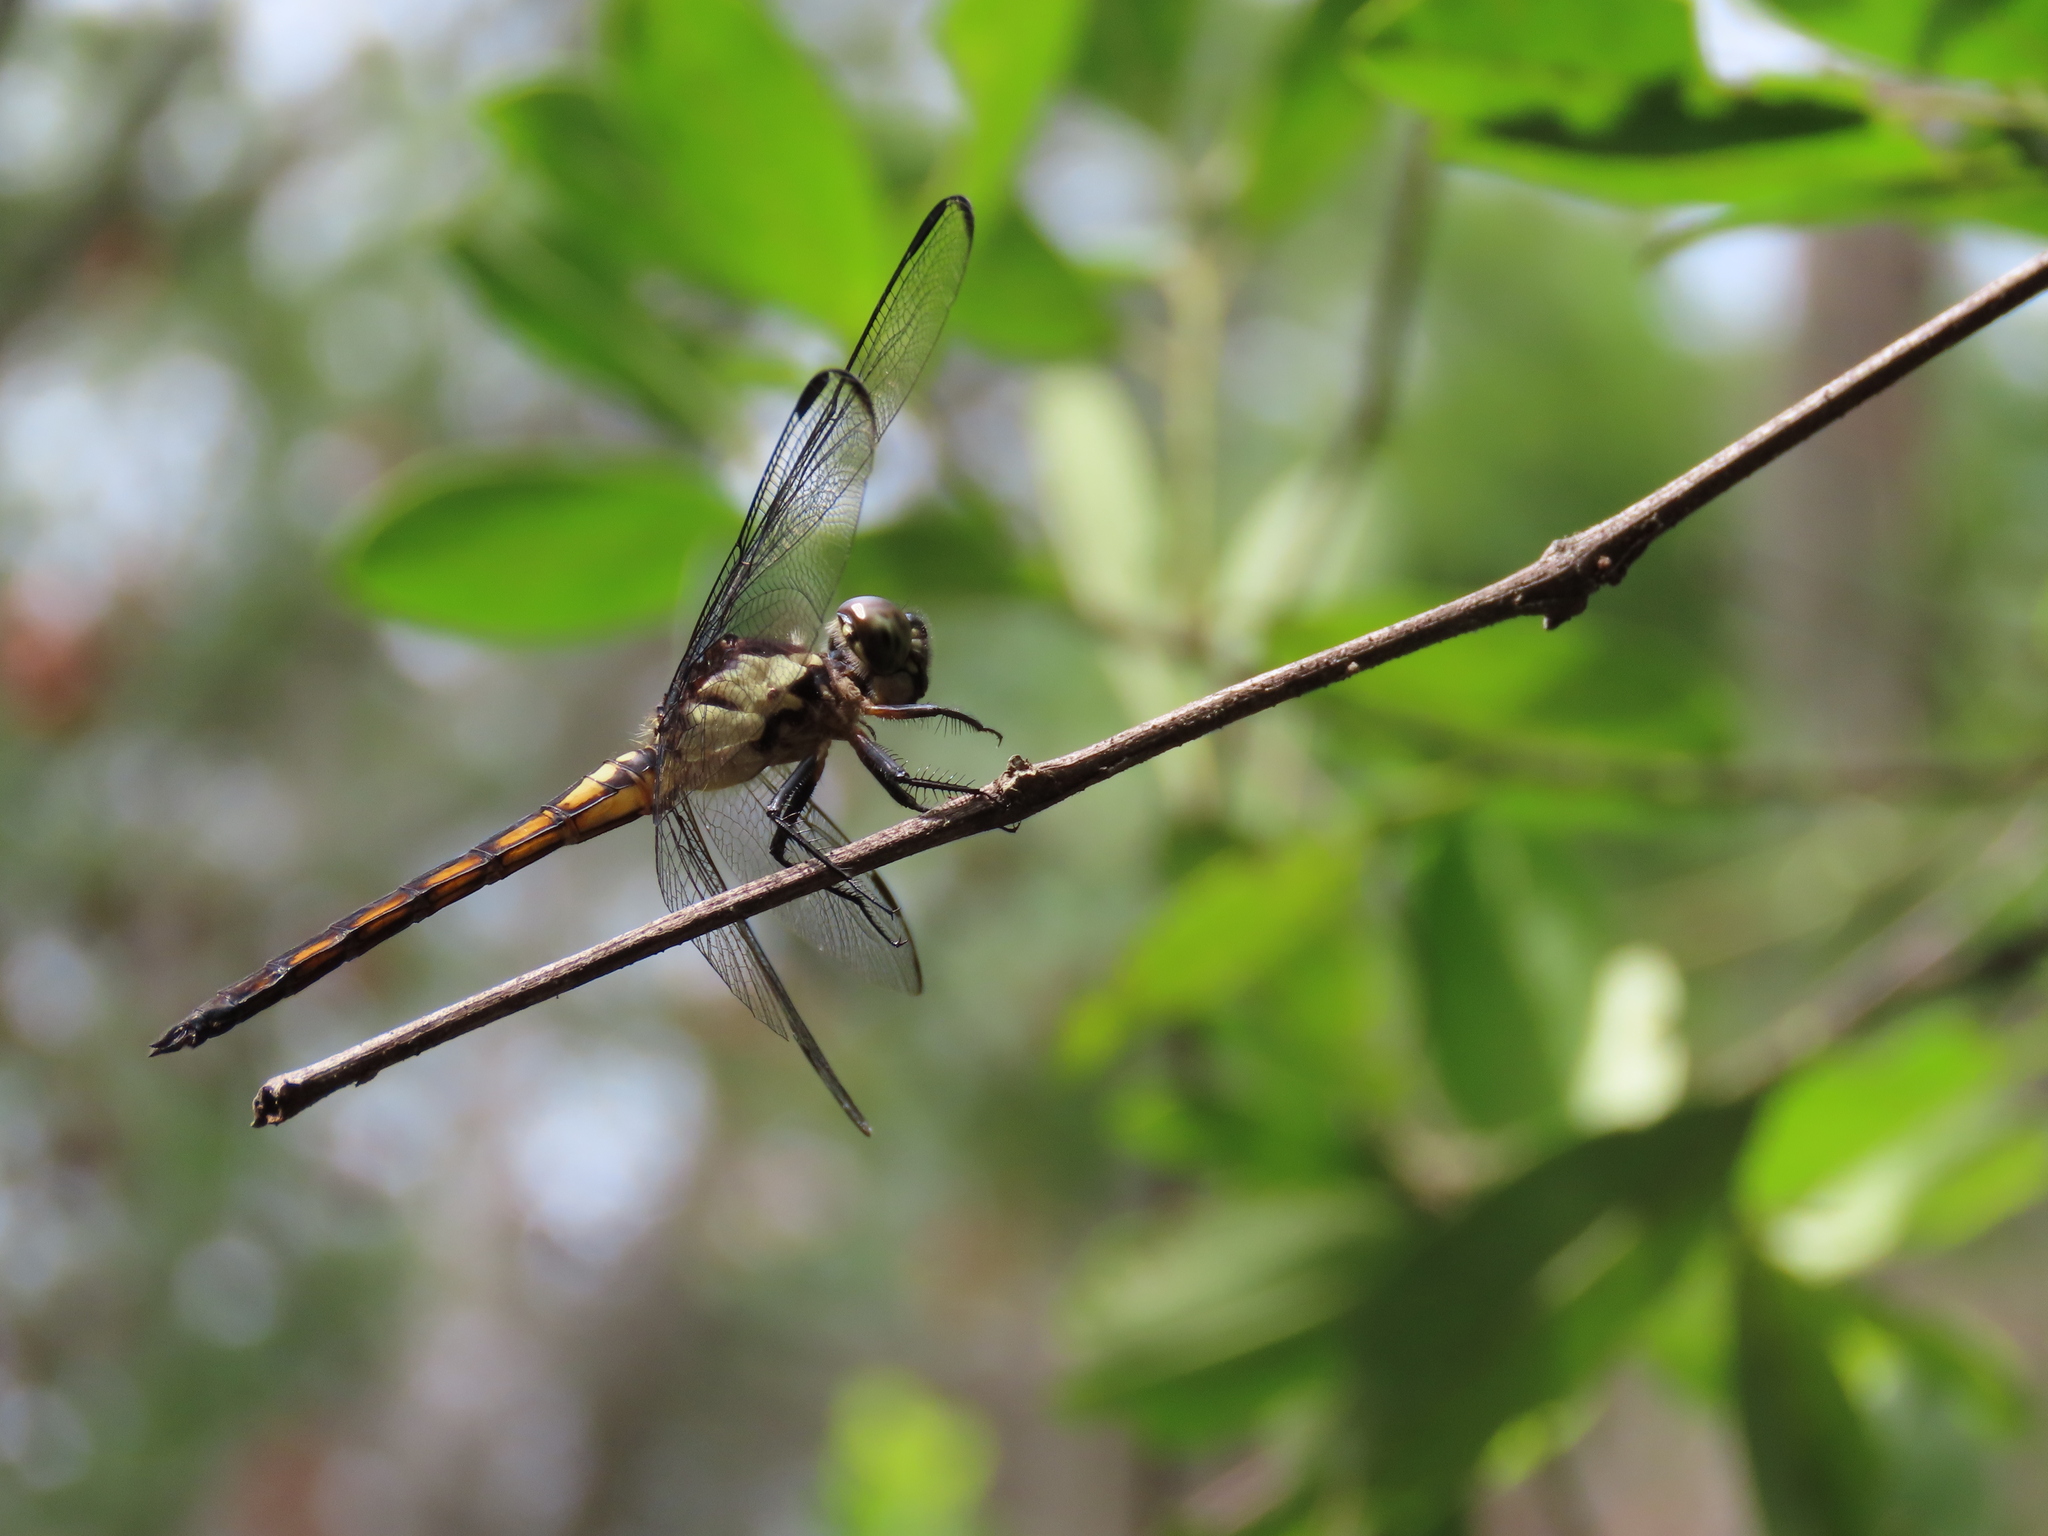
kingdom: Animalia
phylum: Arthropoda
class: Insecta
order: Odonata
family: Libellulidae
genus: Libellula
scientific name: Libellula incesta
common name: Slaty skimmer
